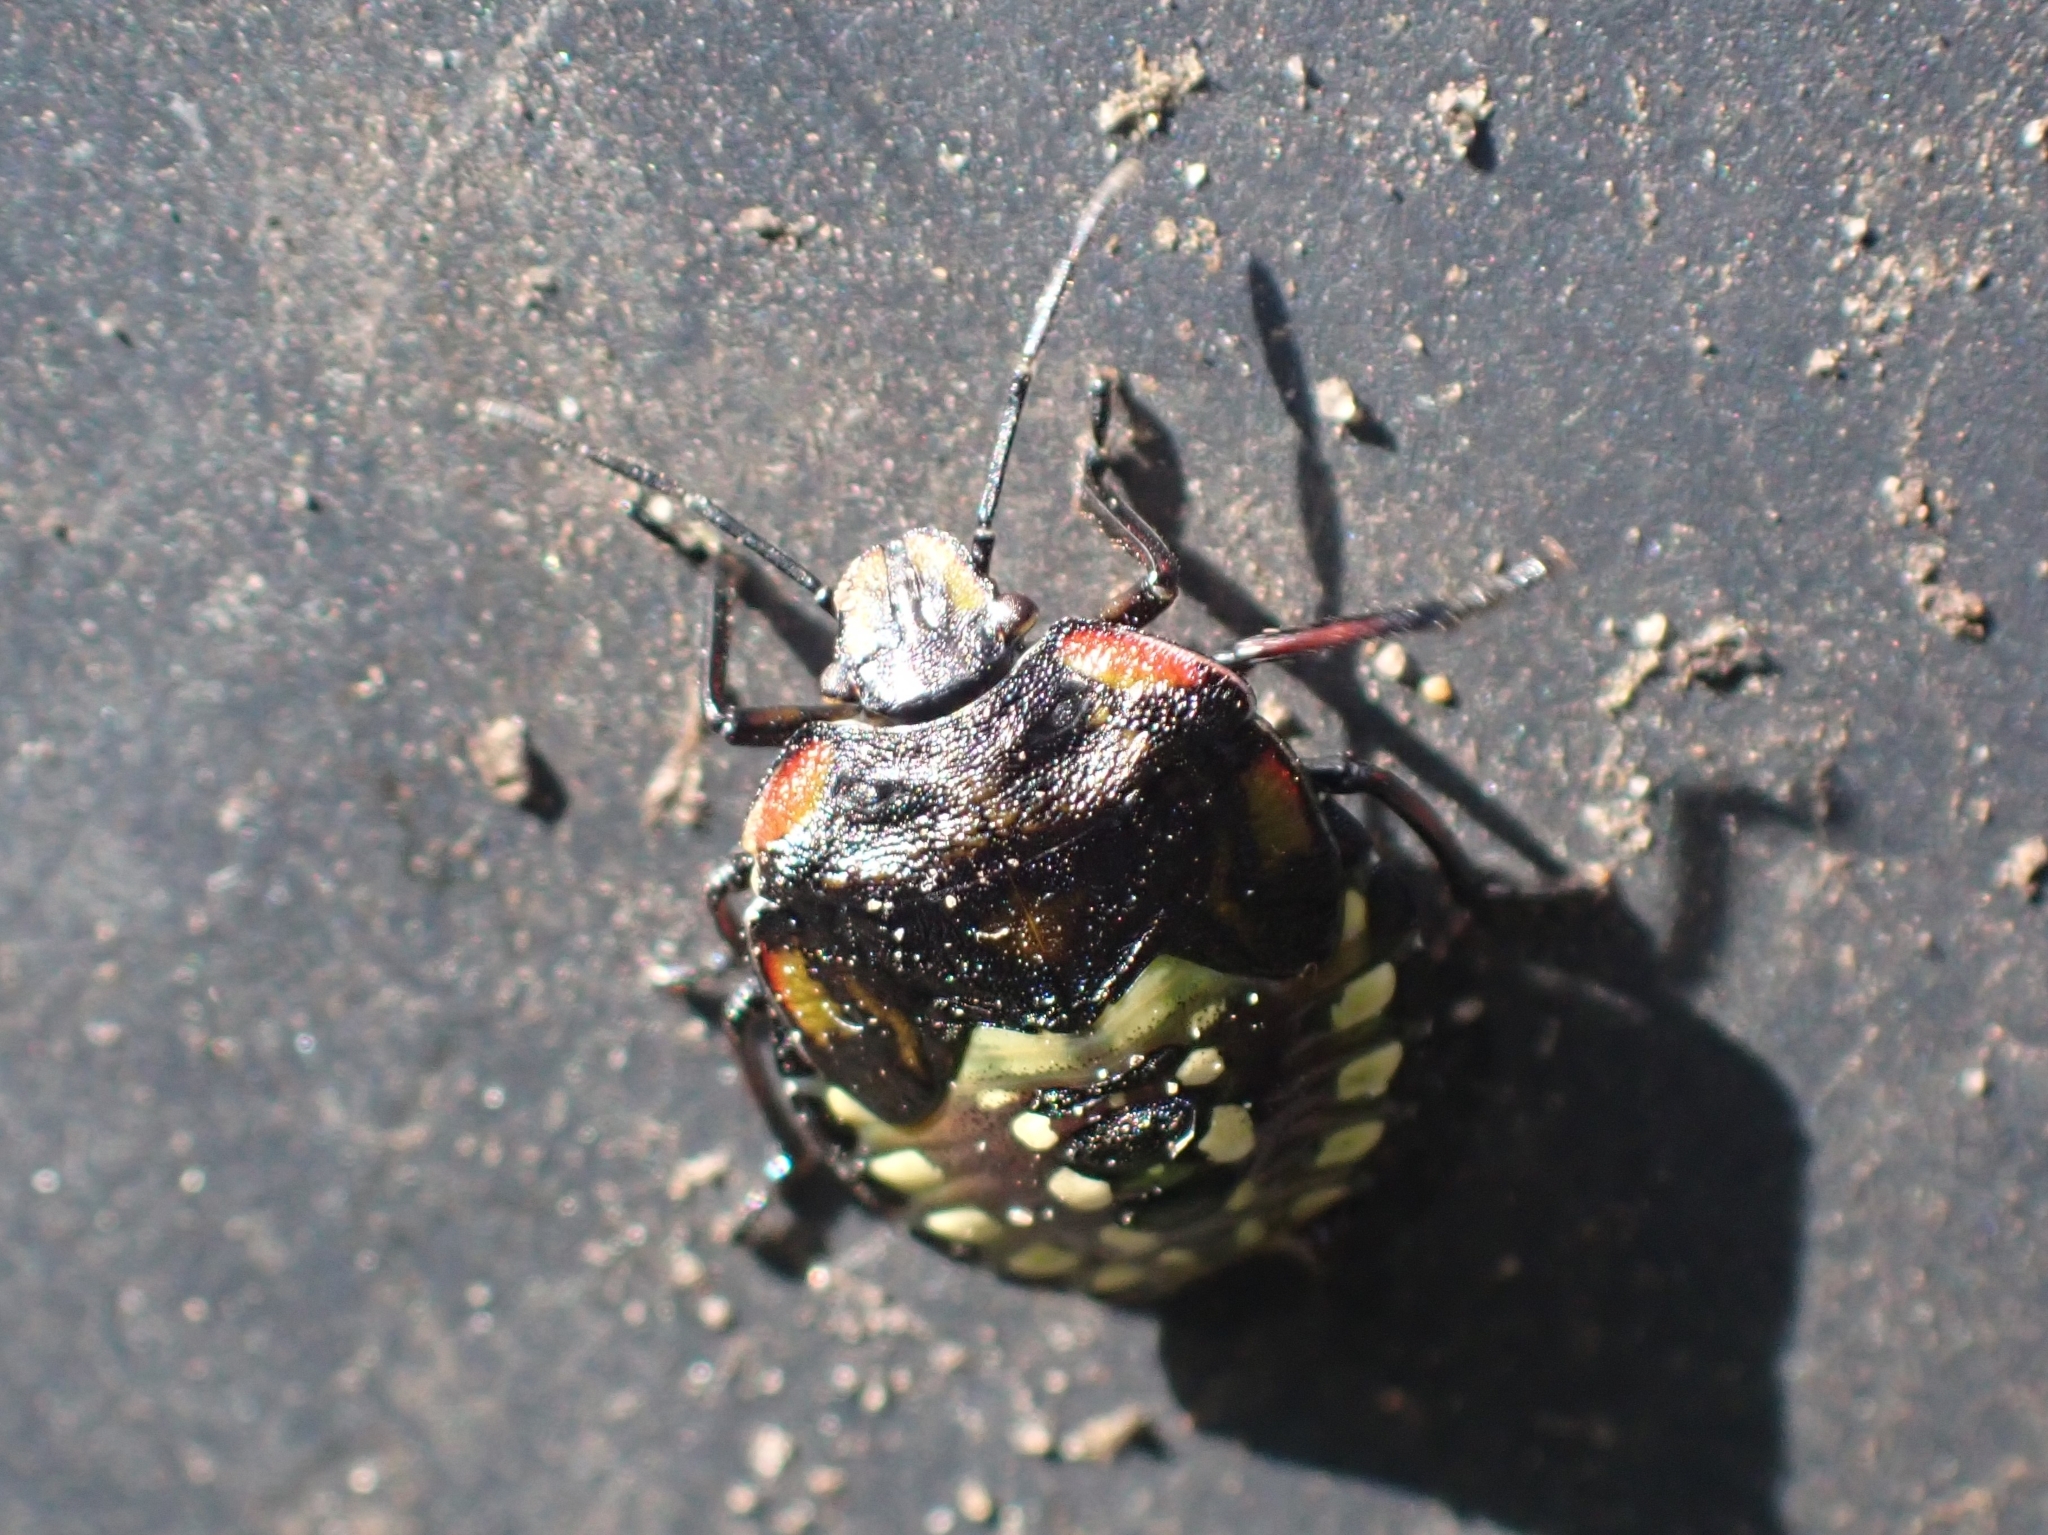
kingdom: Animalia
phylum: Arthropoda
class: Insecta
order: Hemiptera
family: Pentatomidae
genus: Nezara
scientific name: Nezara viridula
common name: Southern green stink bug
